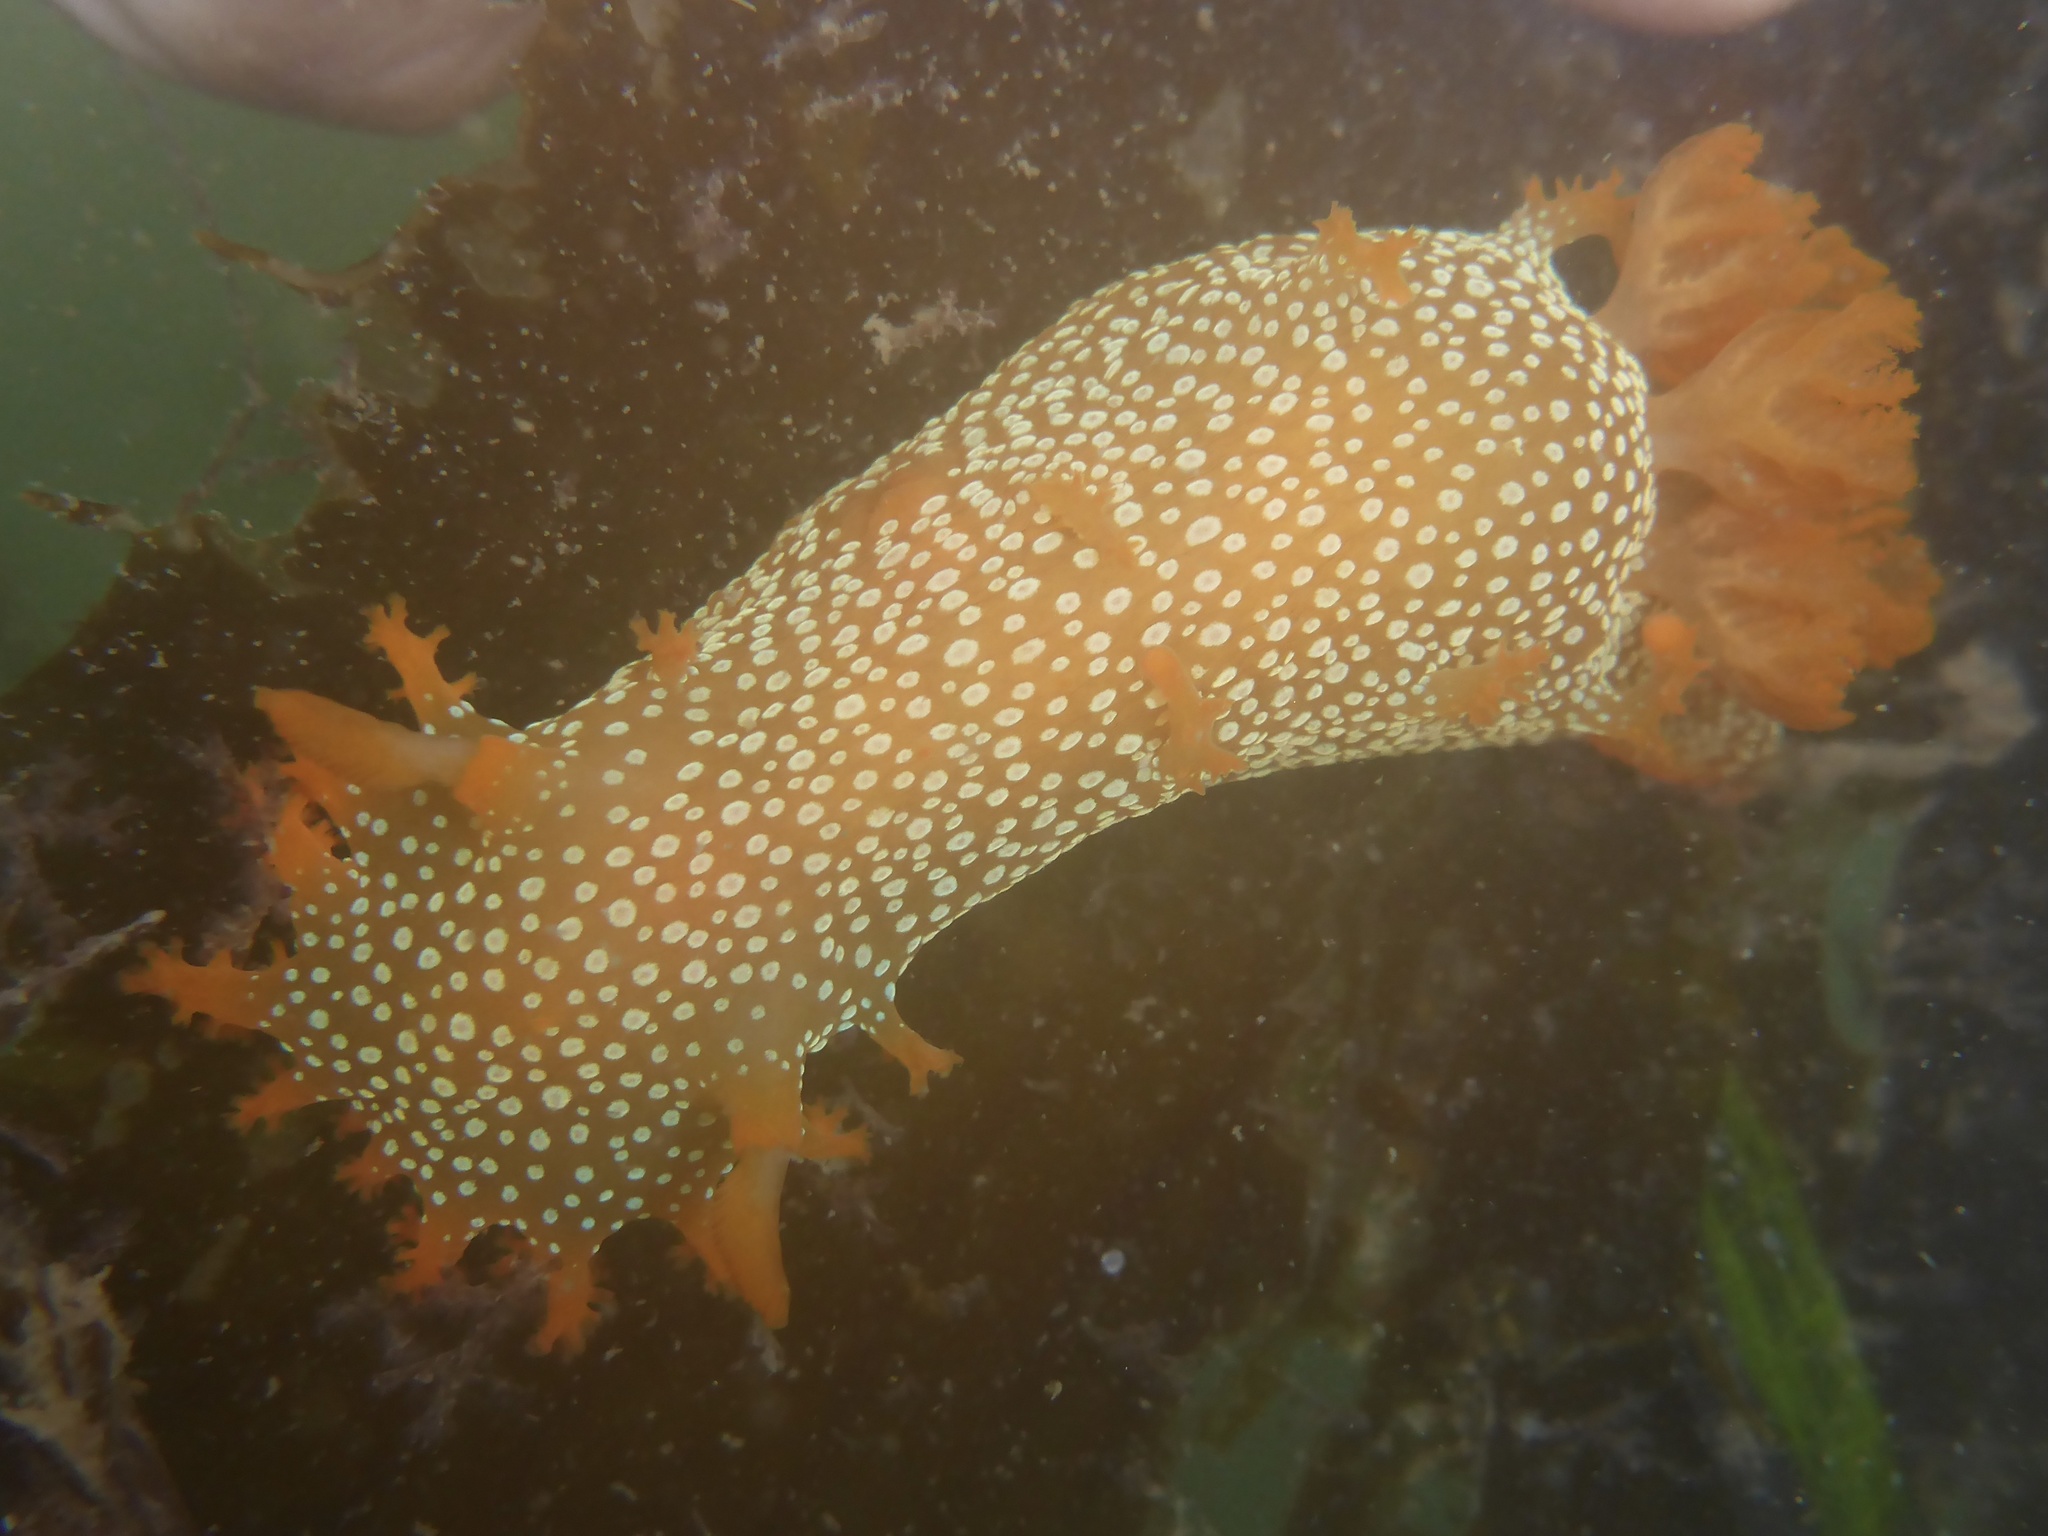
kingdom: Animalia
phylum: Mollusca
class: Gastropoda
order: Nudibranchia
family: Polyceridae
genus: Triopha
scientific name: Triopha maculata
